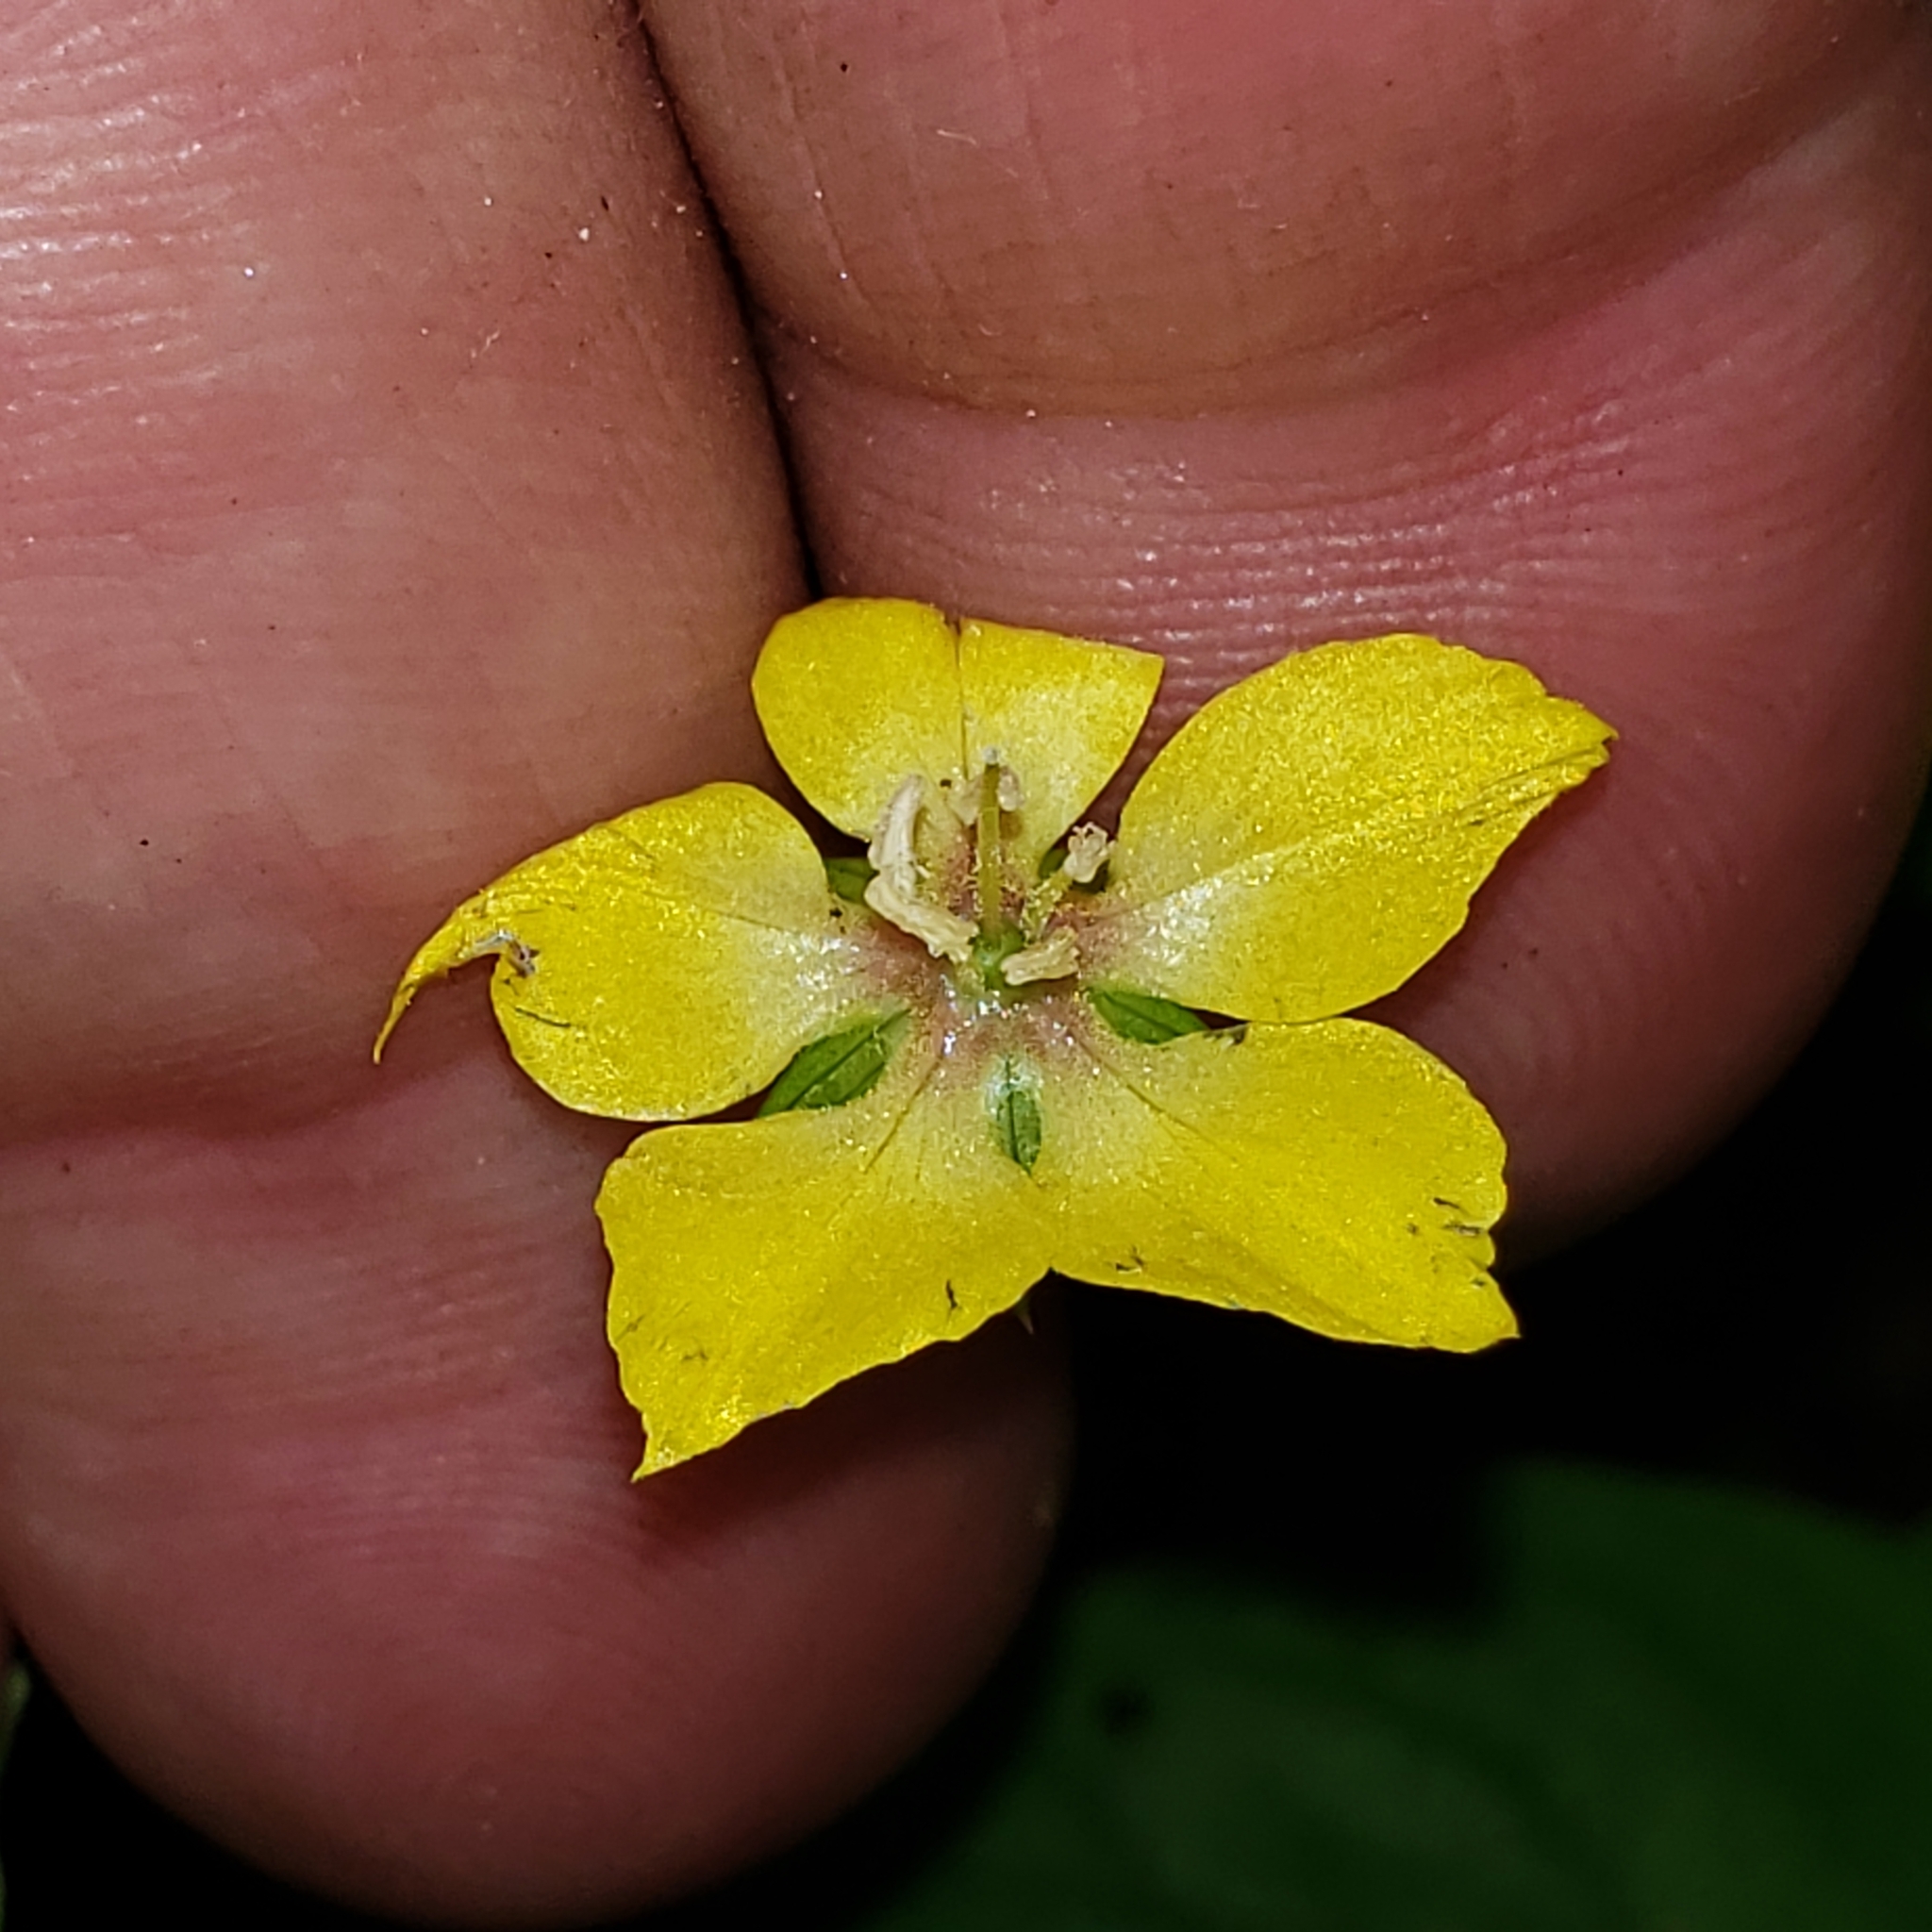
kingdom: Plantae
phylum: Tracheophyta
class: Magnoliopsida
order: Ericales
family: Primulaceae
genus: Lysimachia
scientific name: Lysimachia ciliata
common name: Fringed loosestrife
